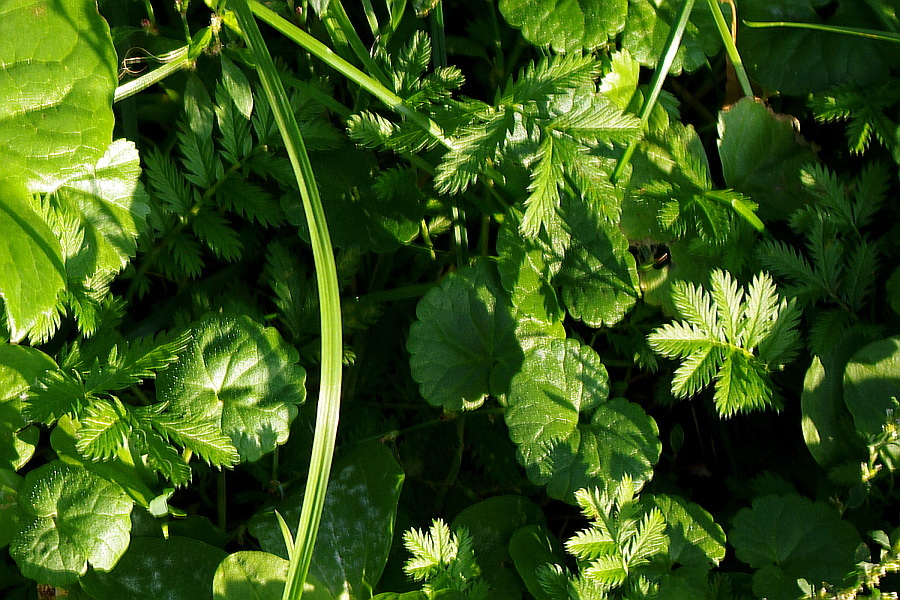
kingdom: Plantae
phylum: Tracheophyta
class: Magnoliopsida
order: Rosales
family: Rosaceae
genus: Argentina
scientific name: Argentina anserina
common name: Common silverweed
